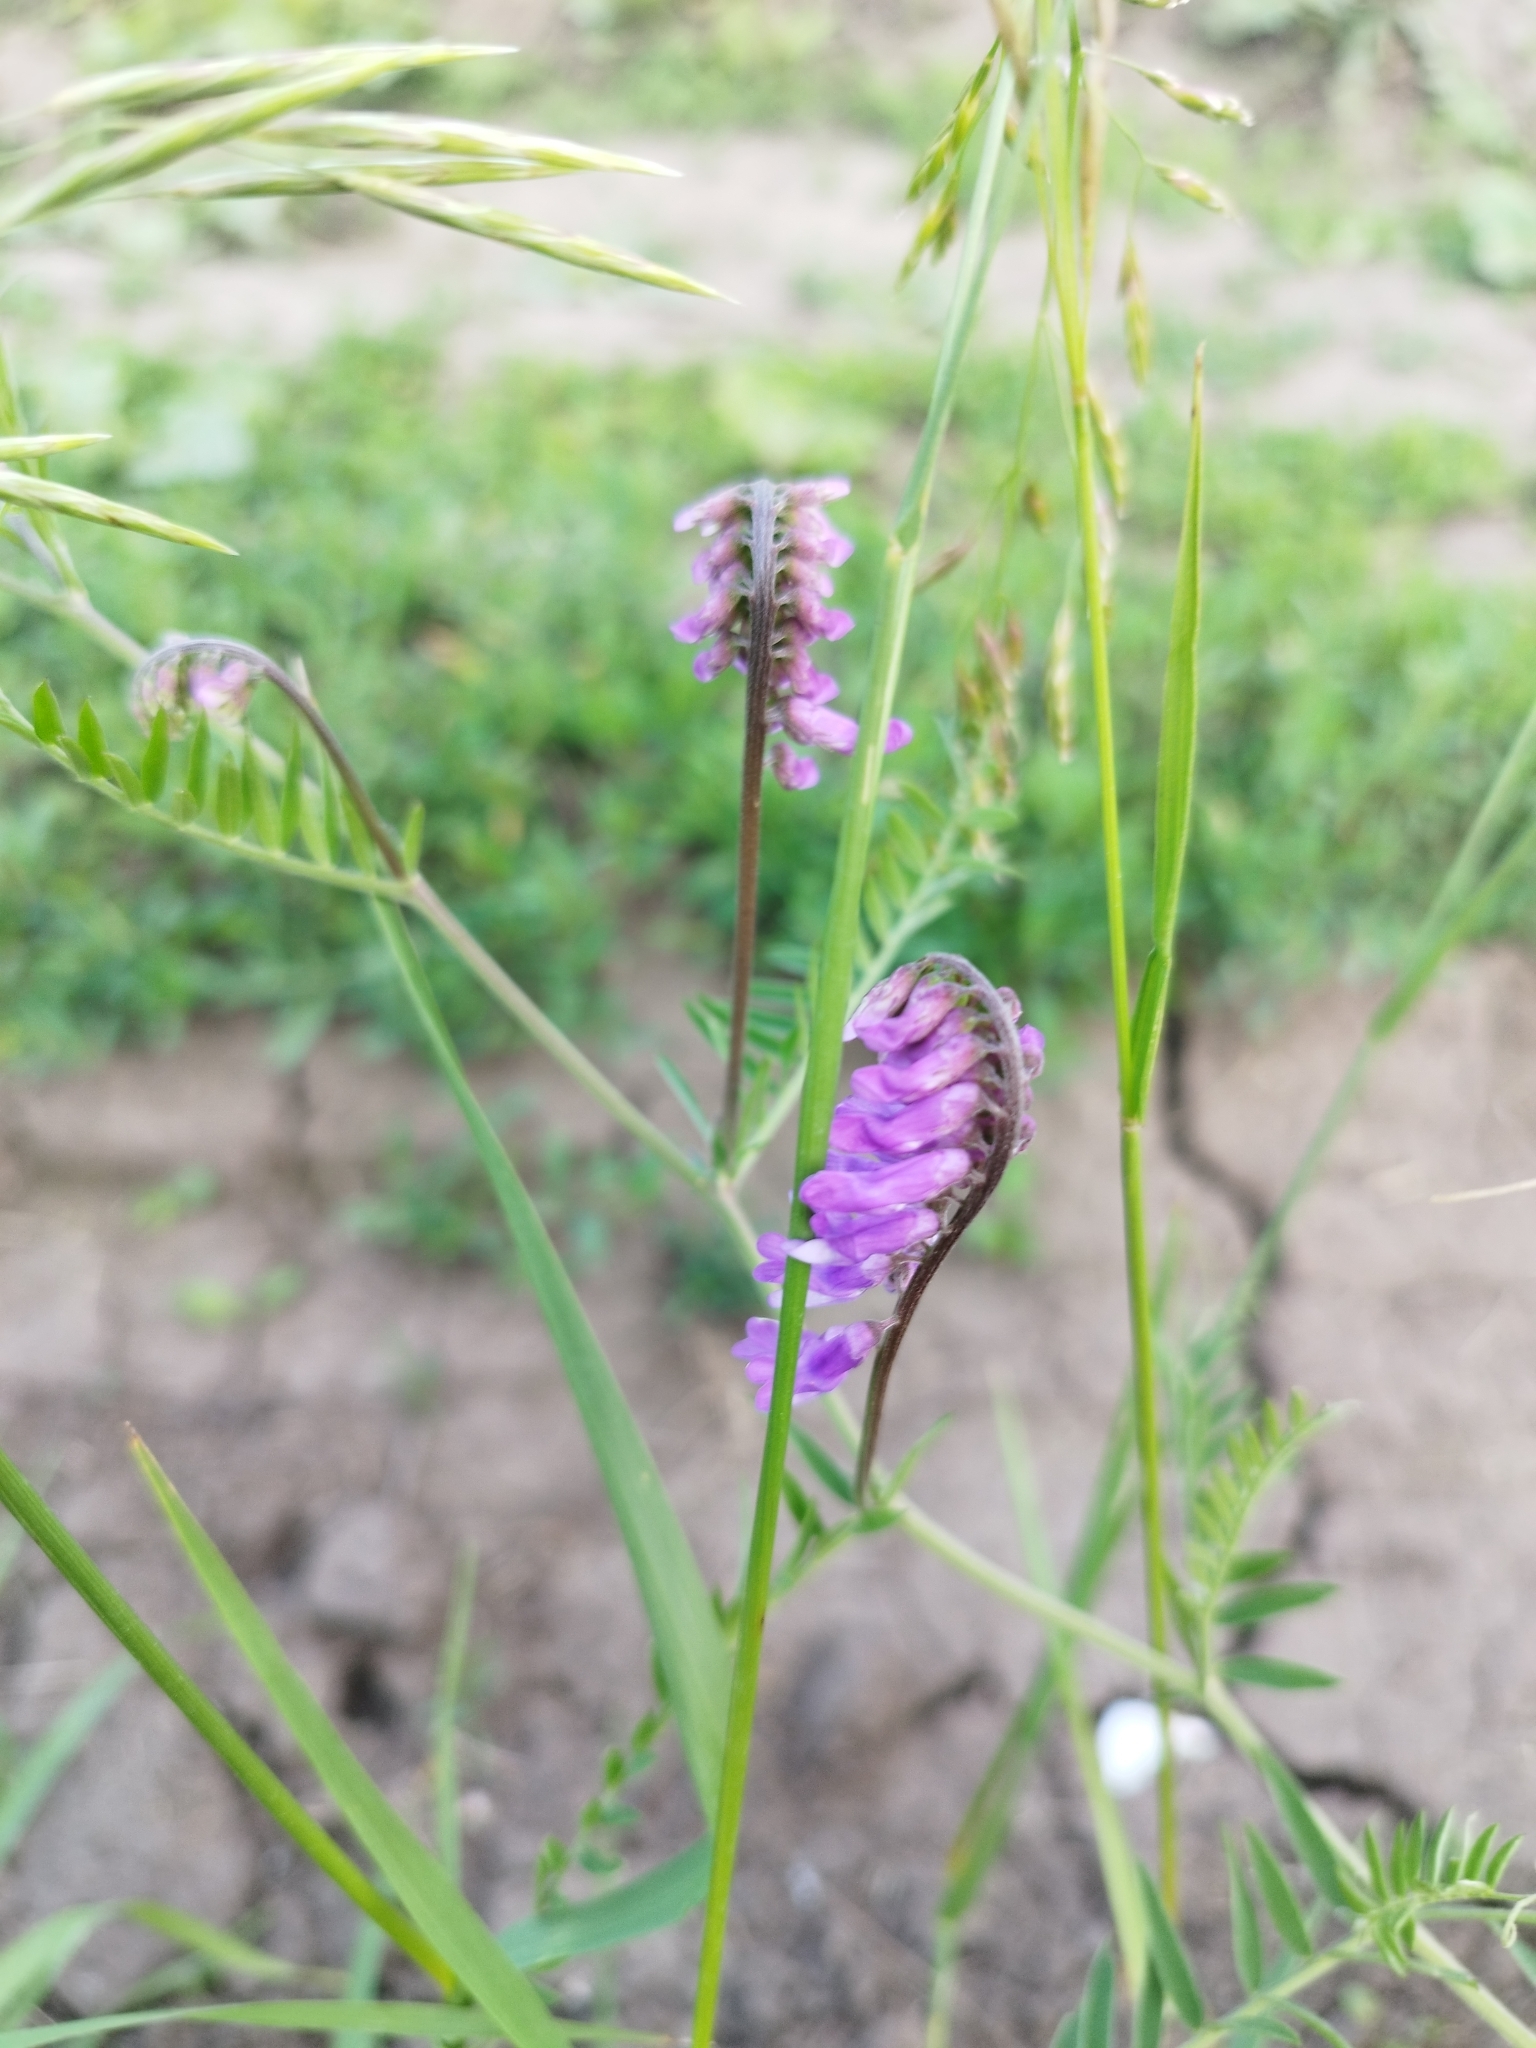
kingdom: Plantae
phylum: Tracheophyta
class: Magnoliopsida
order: Fabales
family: Fabaceae
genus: Vicia
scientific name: Vicia cracca
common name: Bird vetch
